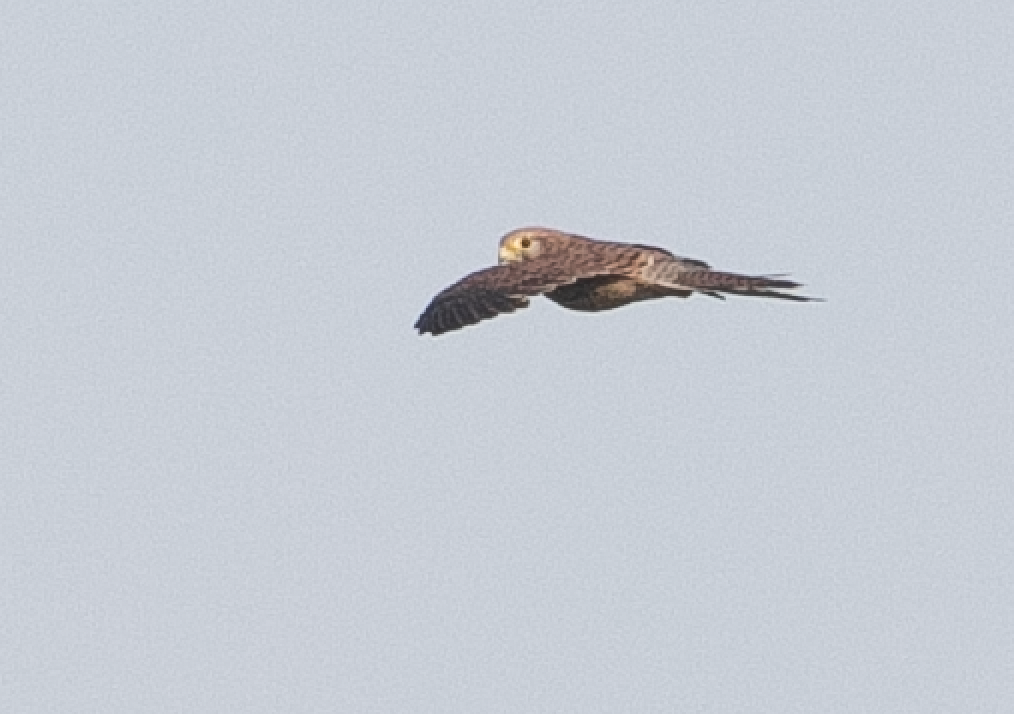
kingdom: Animalia
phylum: Chordata
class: Aves
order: Falconiformes
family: Falconidae
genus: Falco
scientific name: Falco tinnunculus
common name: Common kestrel
